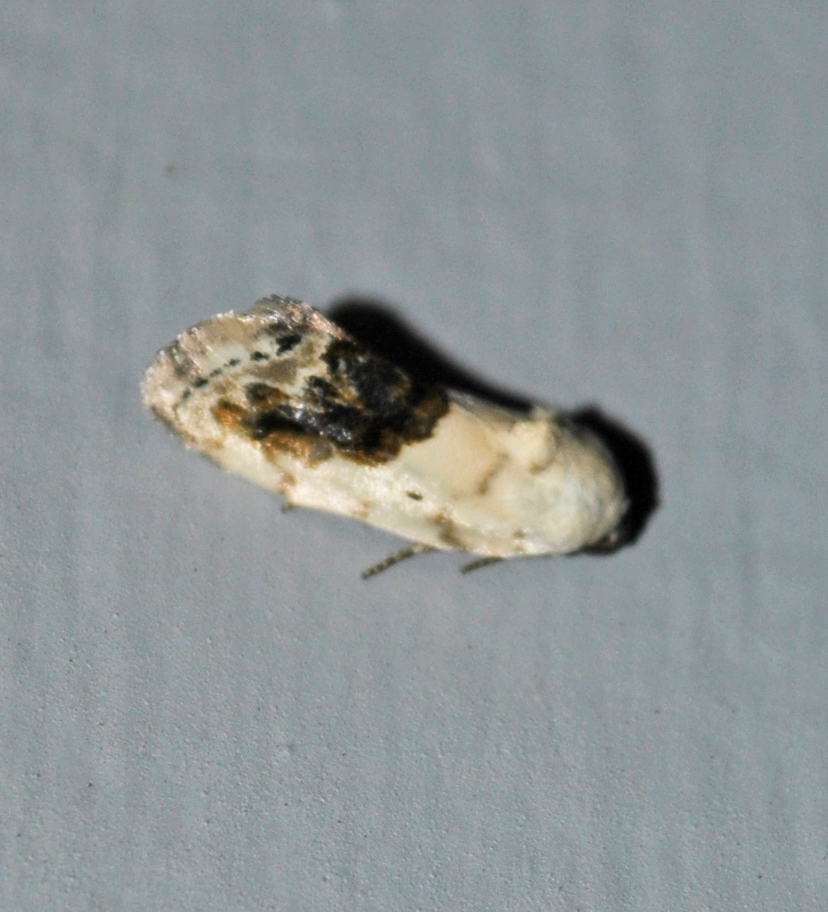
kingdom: Animalia
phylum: Arthropoda
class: Insecta
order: Lepidoptera
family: Noctuidae
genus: Acontia
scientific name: Acontia erastrioides
